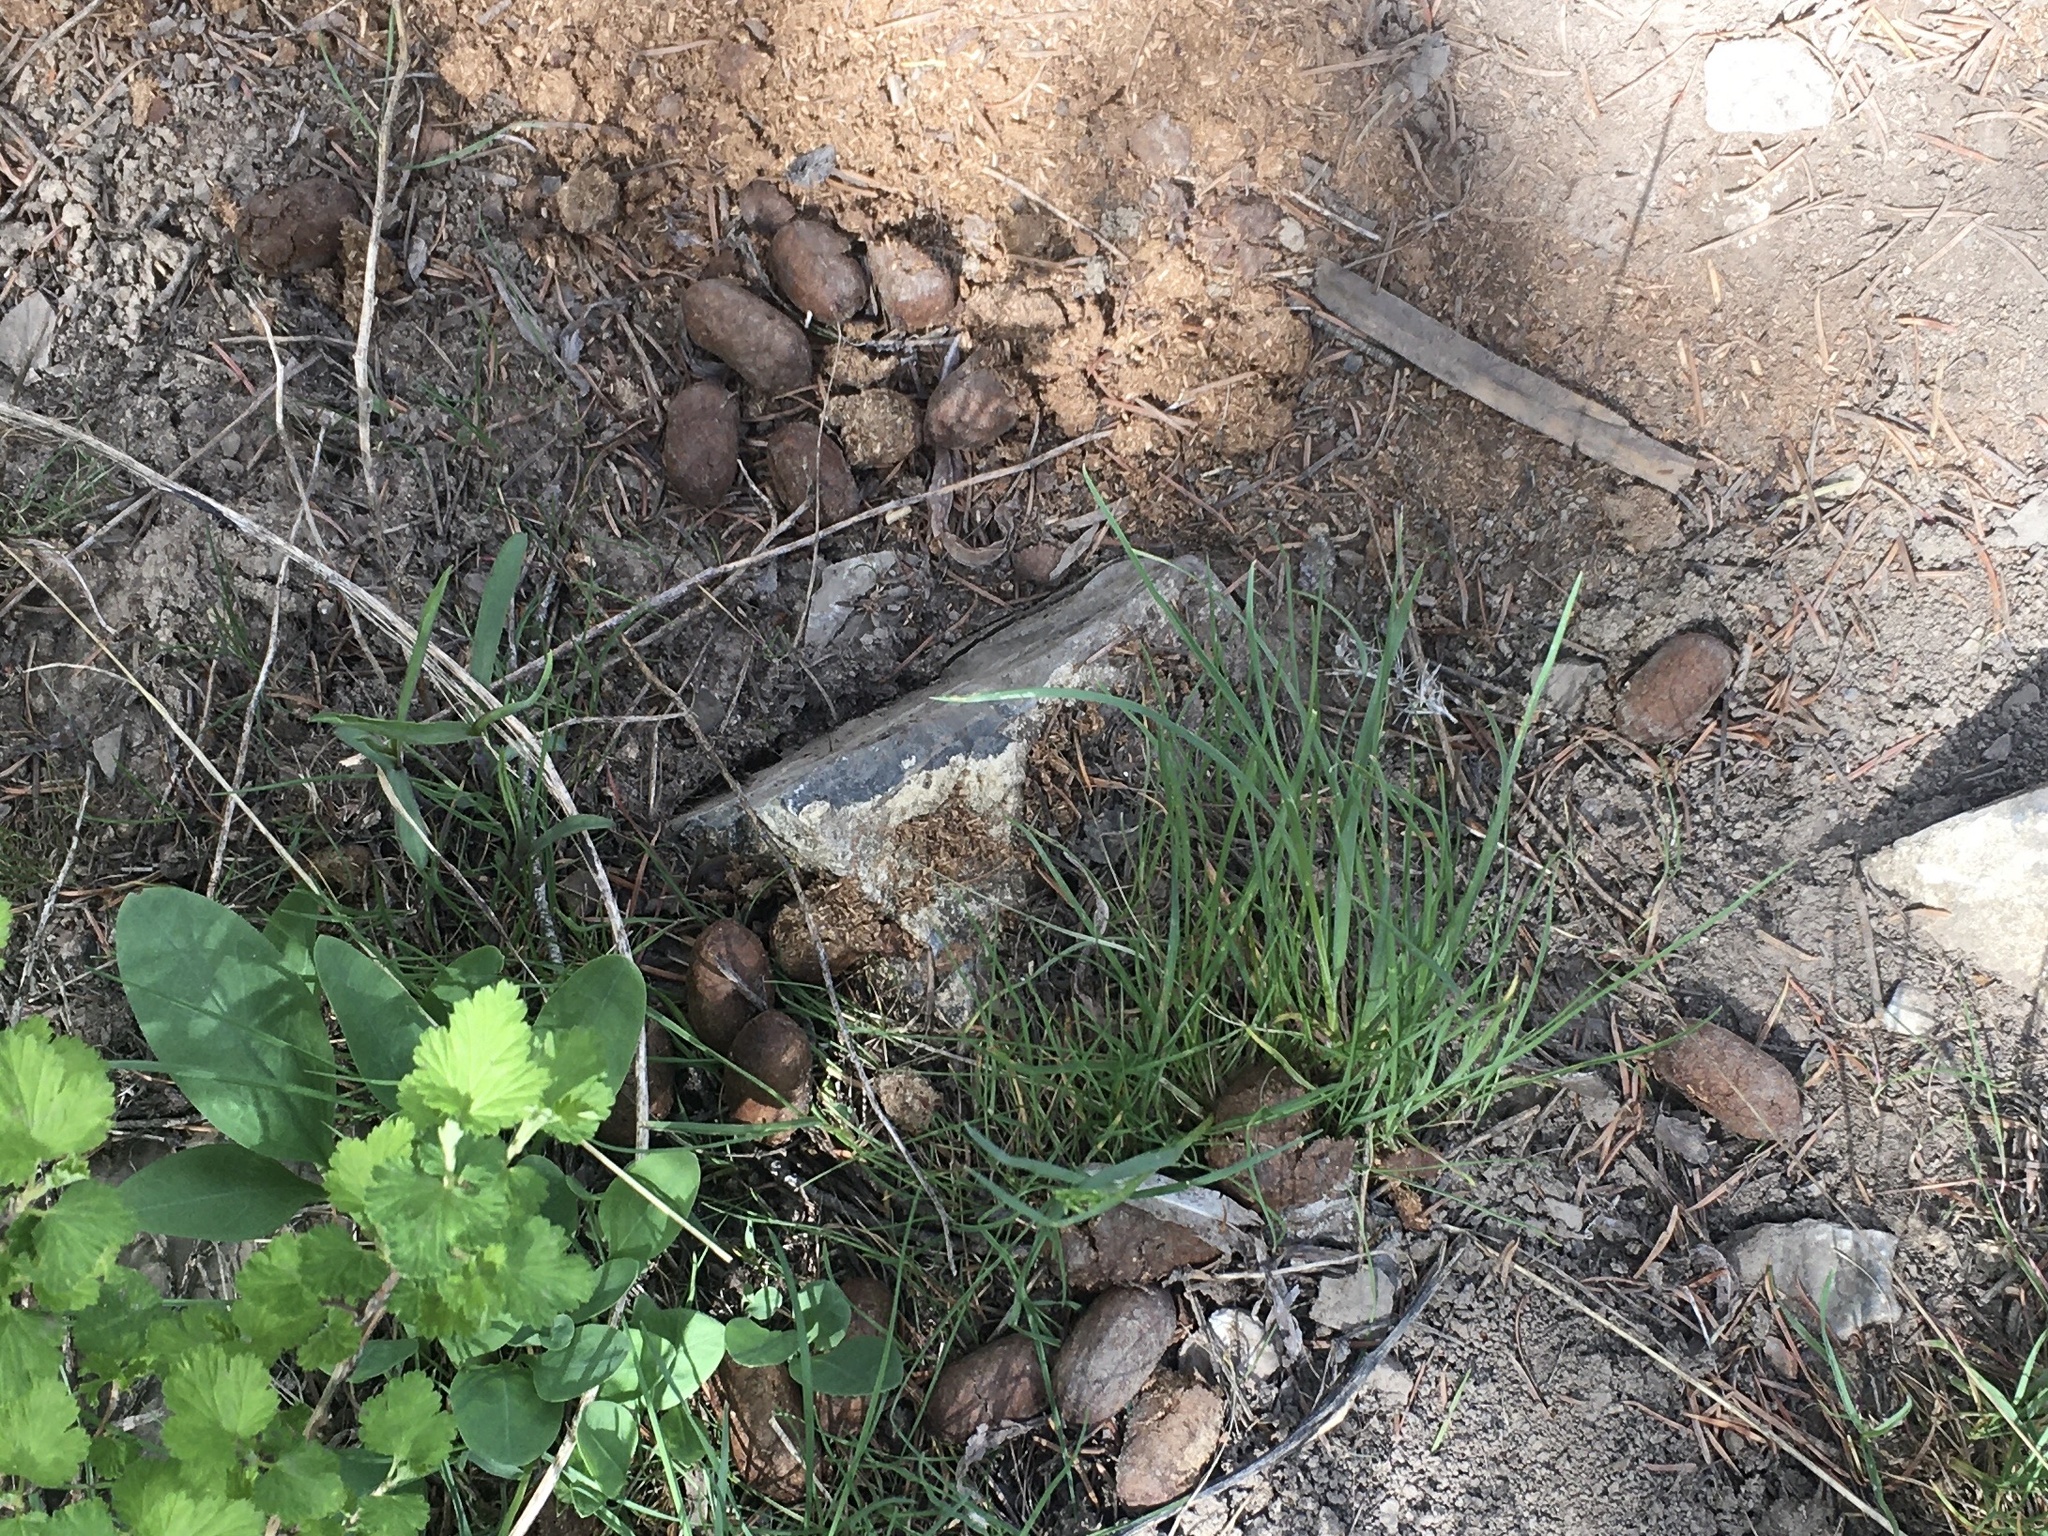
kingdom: Animalia
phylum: Chordata
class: Mammalia
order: Artiodactyla
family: Cervidae
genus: Alces
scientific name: Alces alces
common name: Moose
